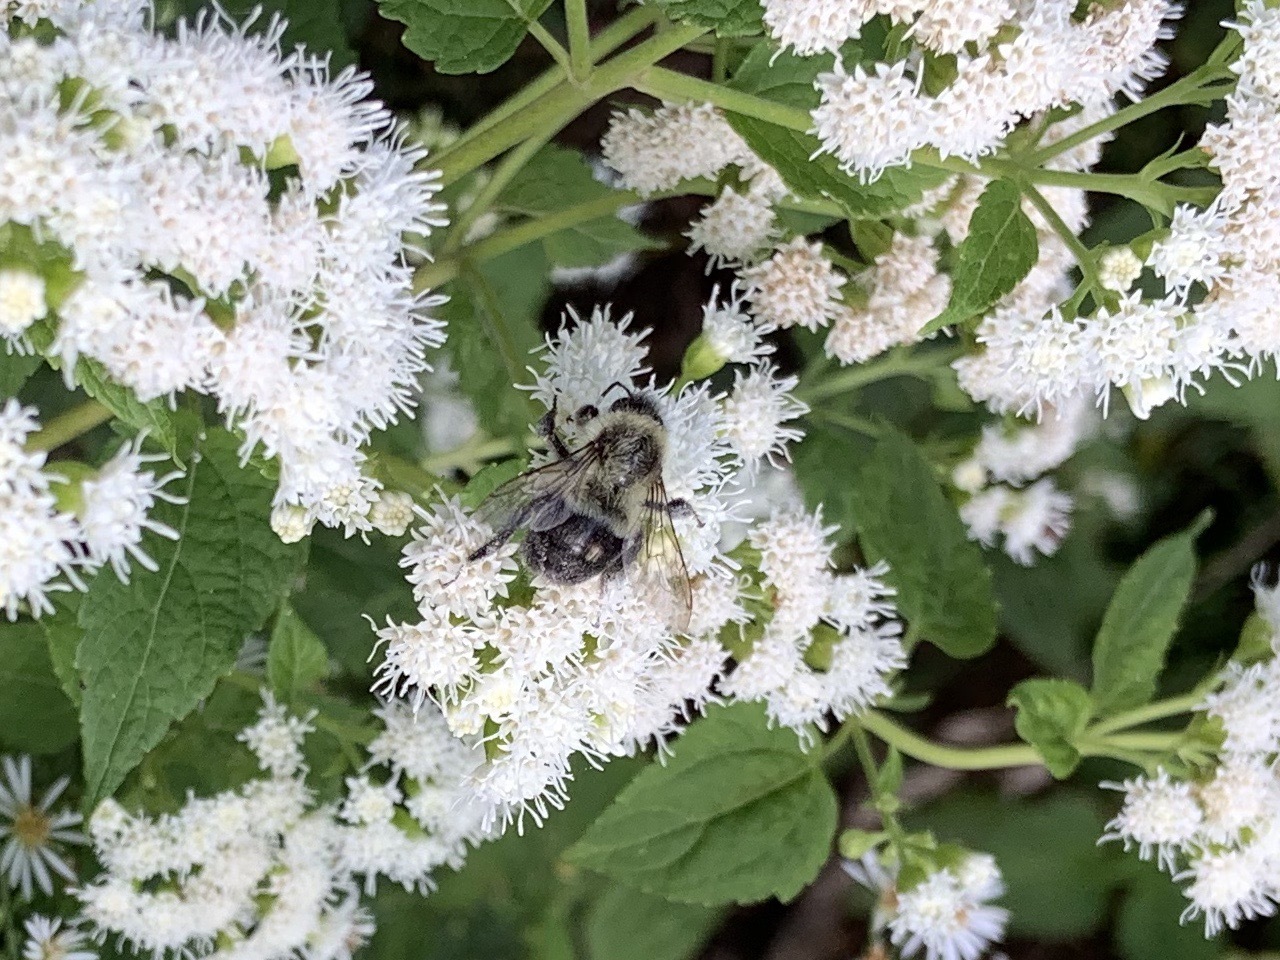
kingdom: Animalia
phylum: Arthropoda
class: Insecta
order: Hymenoptera
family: Apidae
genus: Bombus
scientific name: Bombus impatiens
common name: Common eastern bumble bee
